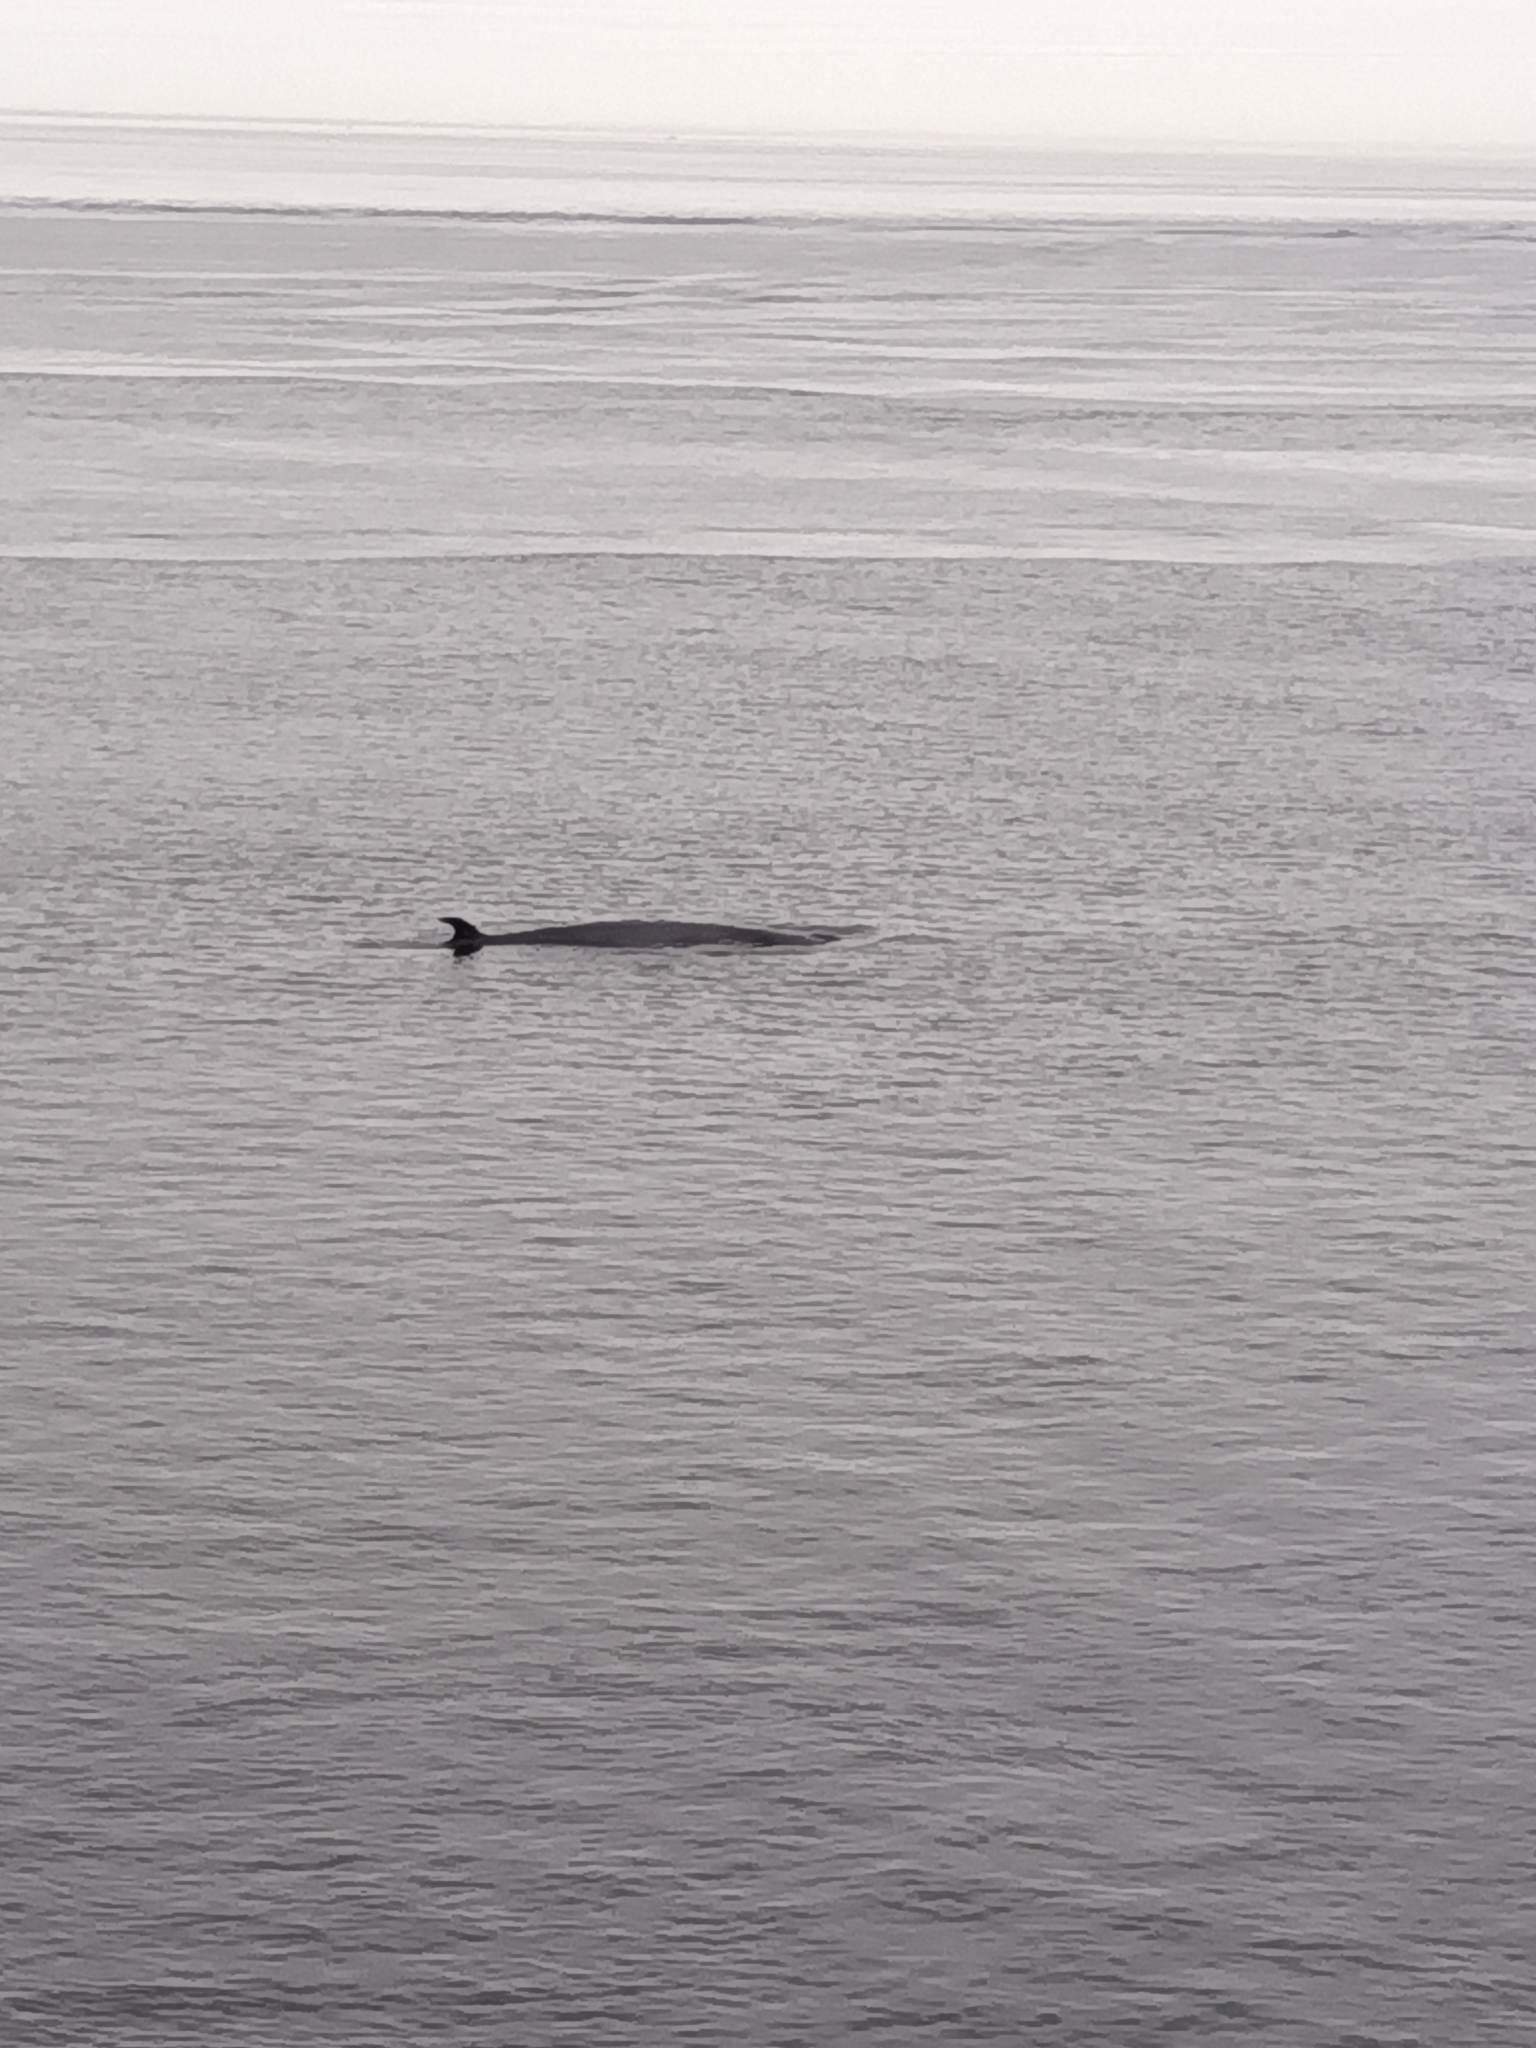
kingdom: Animalia
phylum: Chordata
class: Mammalia
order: Cetacea
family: Balaenopteridae
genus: Balaenoptera
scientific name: Balaenoptera acutorostrata
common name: Common minke whale
